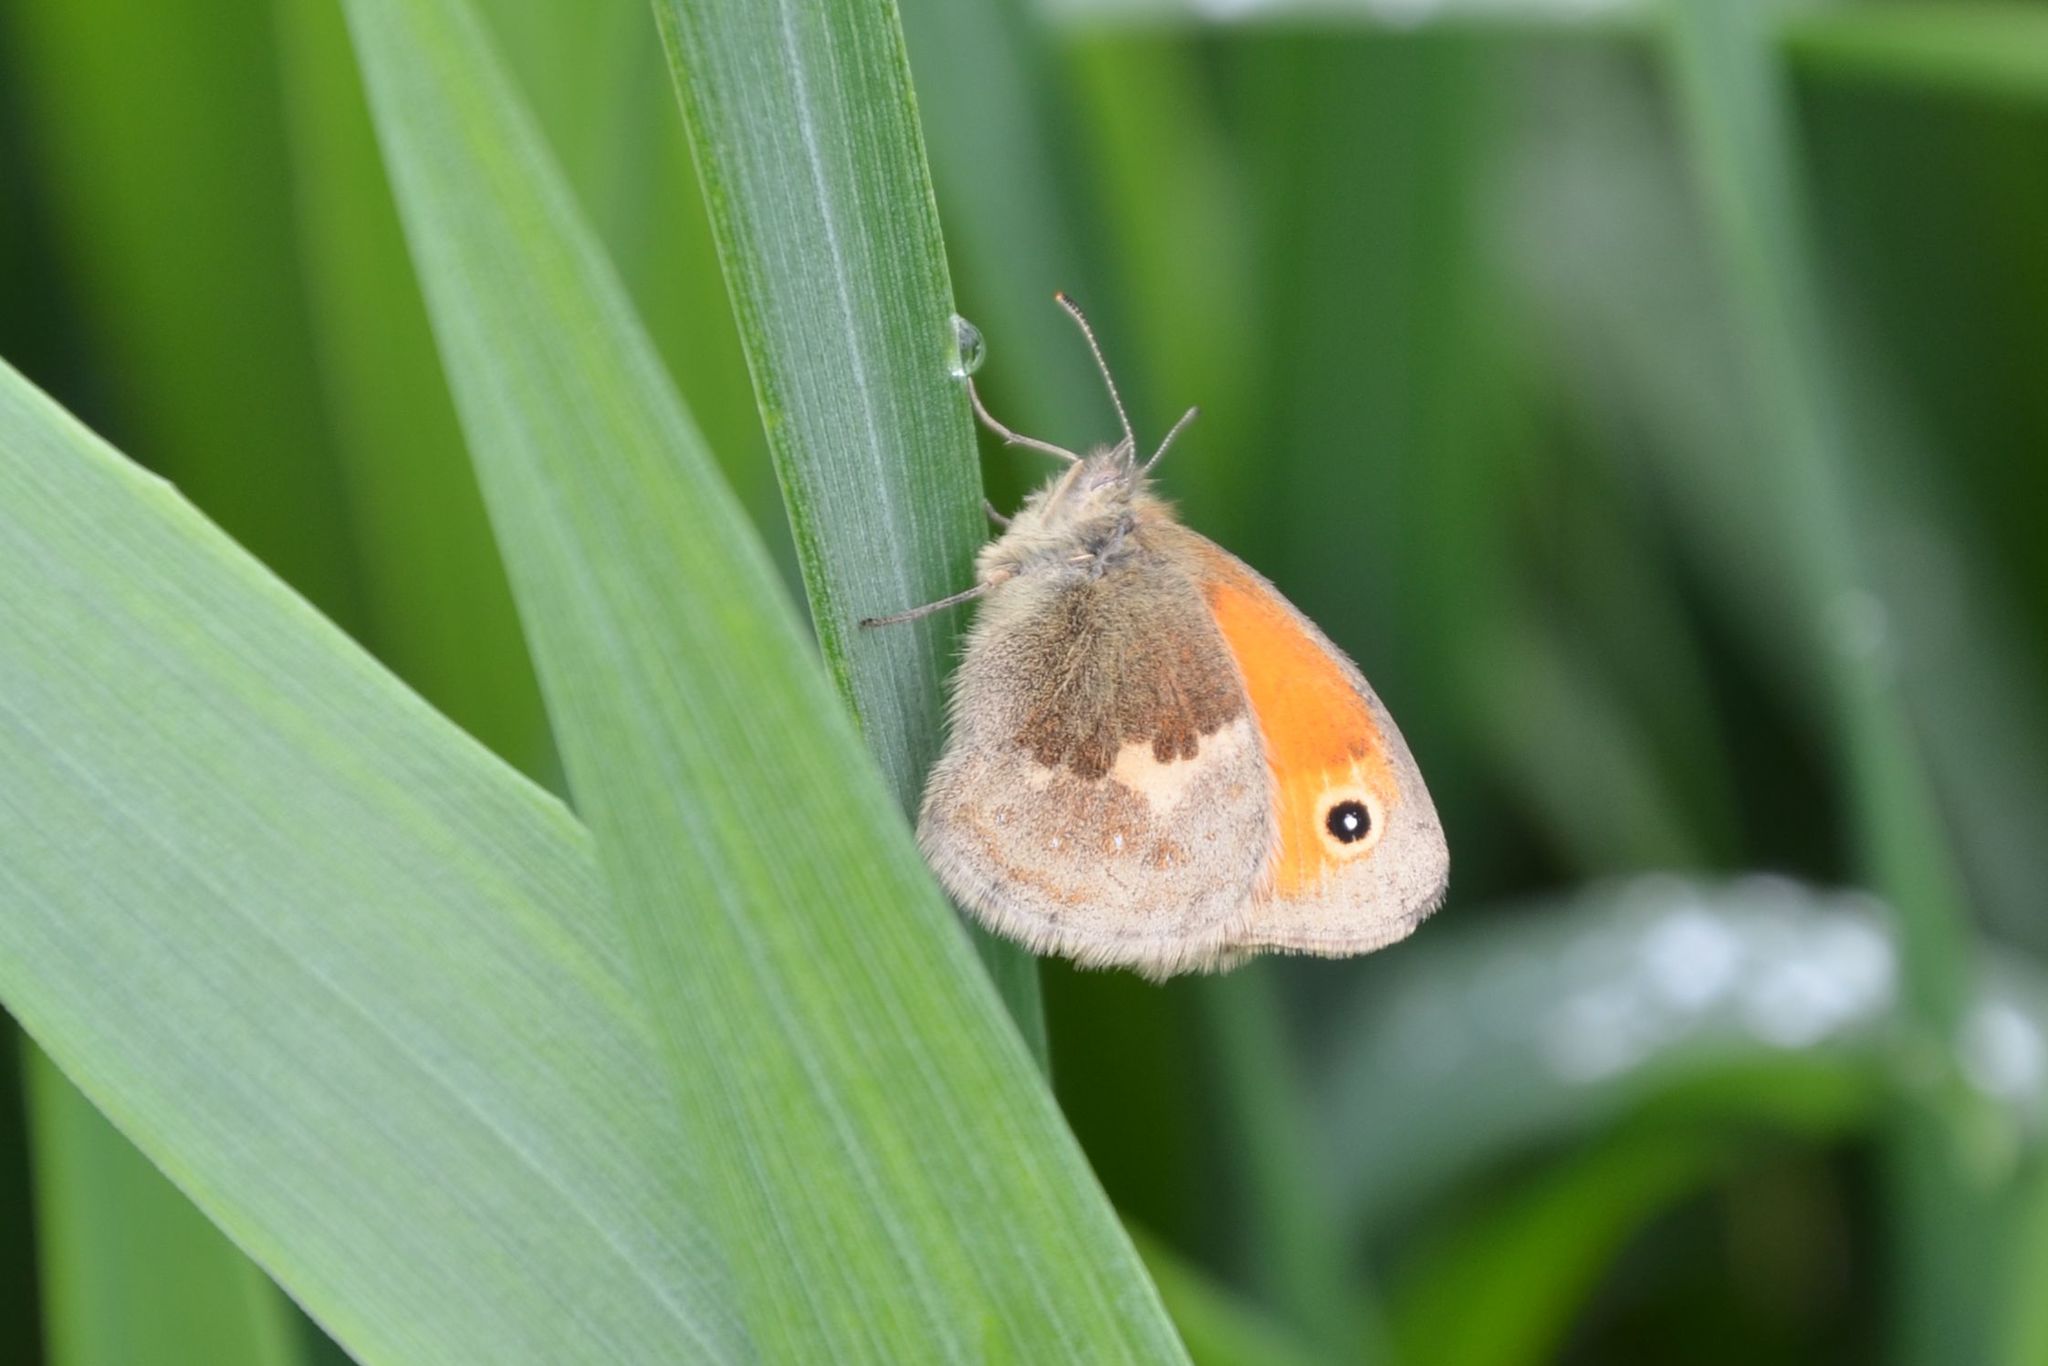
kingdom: Animalia
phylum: Arthropoda
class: Insecta
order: Lepidoptera
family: Nymphalidae
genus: Coenonympha
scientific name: Coenonympha pamphilus
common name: Small heath
